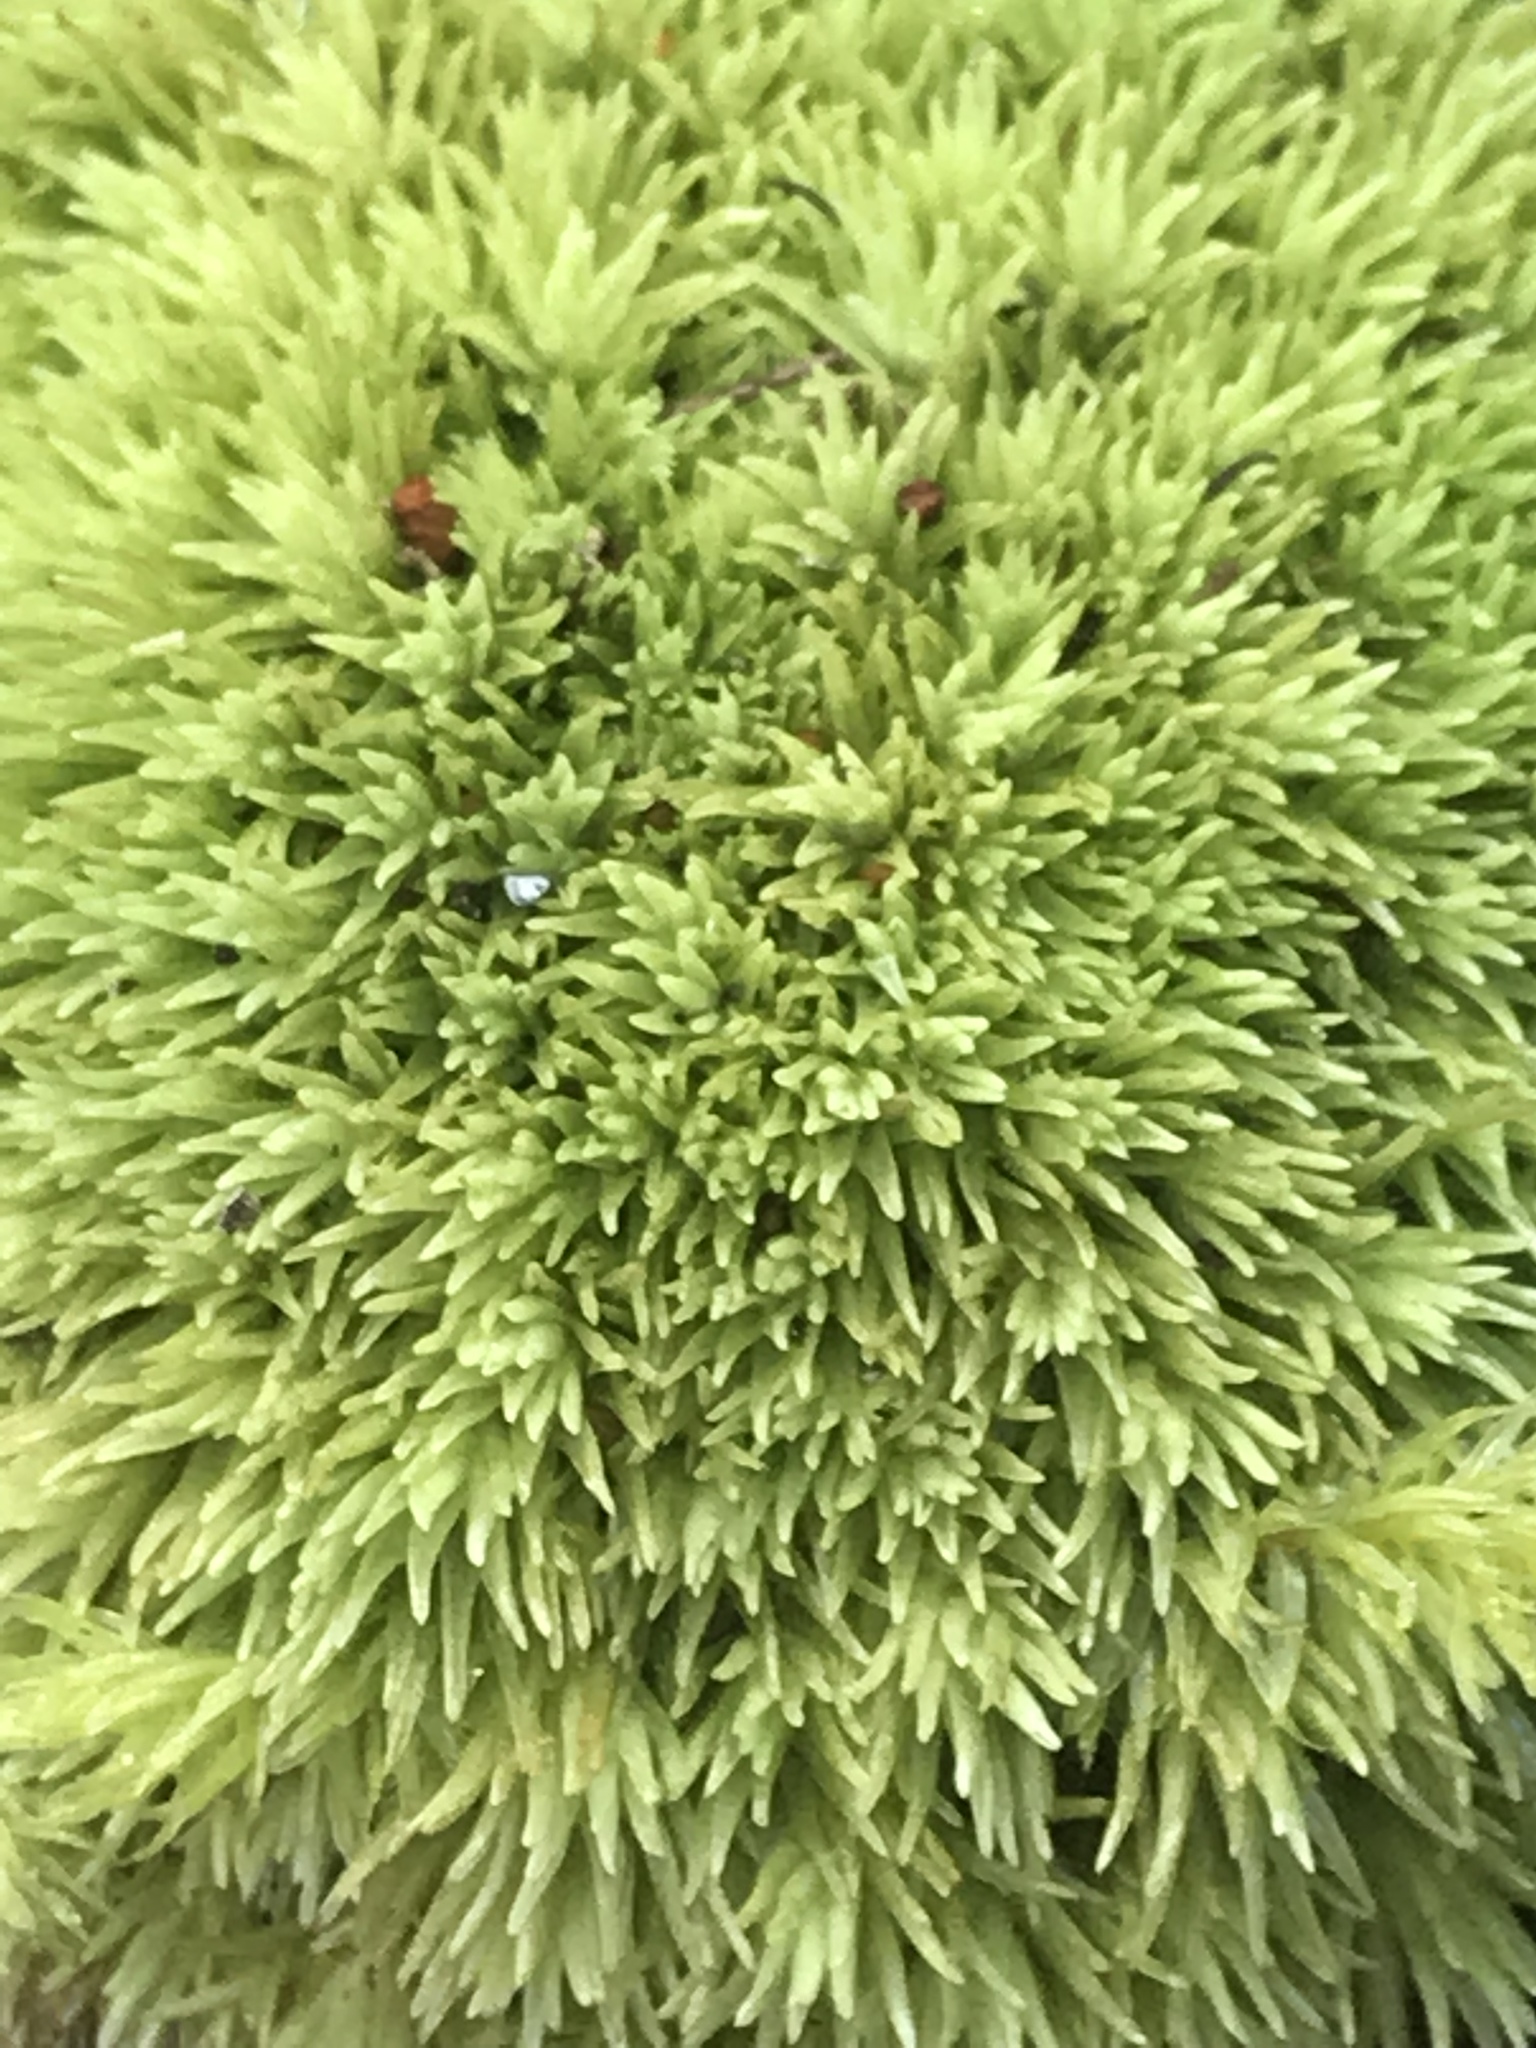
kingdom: Plantae
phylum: Bryophyta
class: Bryopsida
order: Dicranales
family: Leucobryaceae
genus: Leucobryum
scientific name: Leucobryum glaucum
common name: Large white-moss
